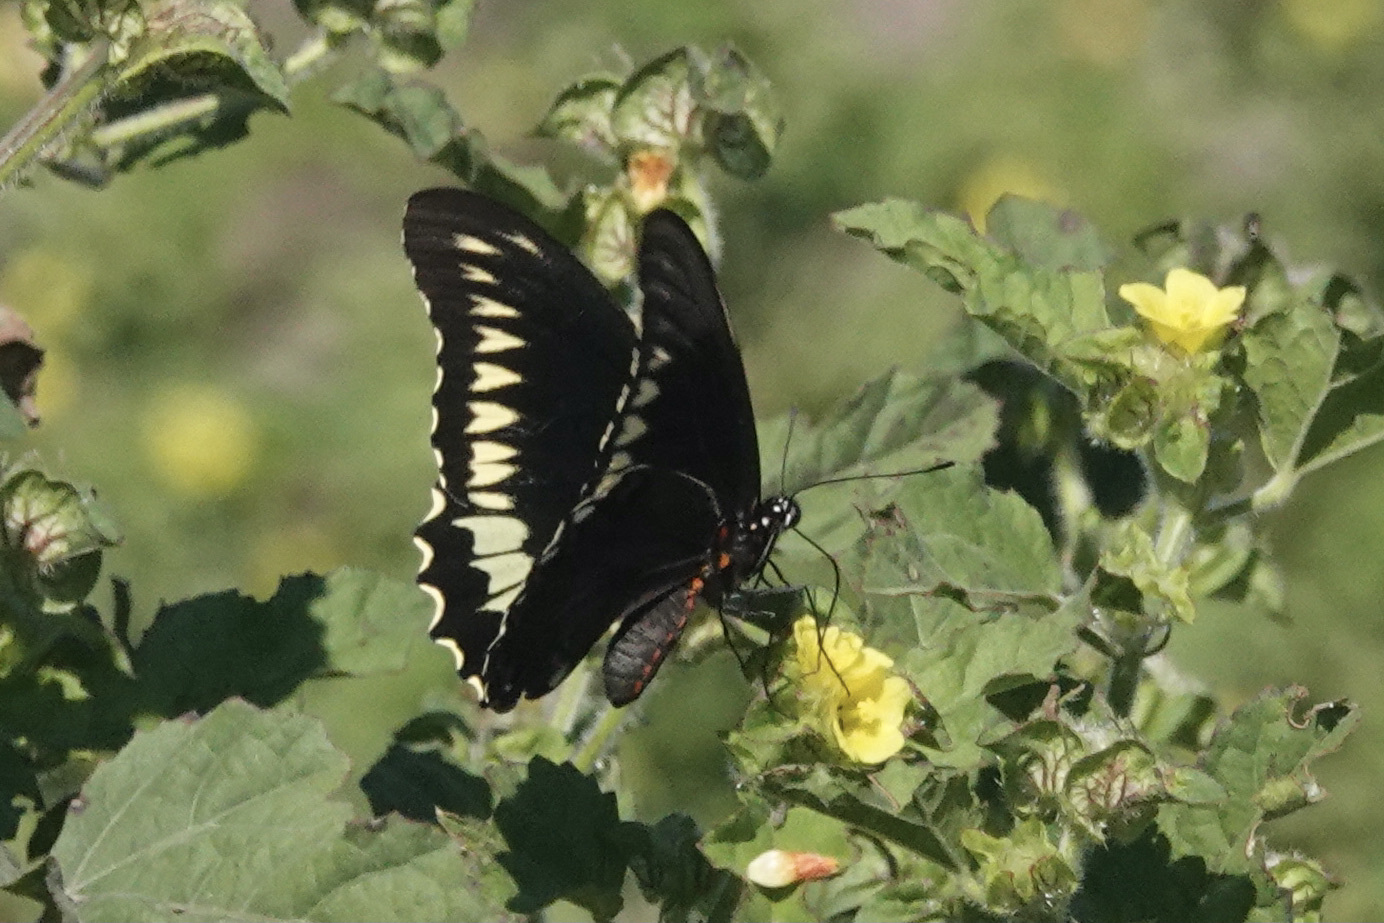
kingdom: Animalia
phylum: Arthropoda
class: Insecta
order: Lepidoptera
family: Papilionidae
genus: Battus
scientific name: Battus polydamas
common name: Polydamas swallowtail
